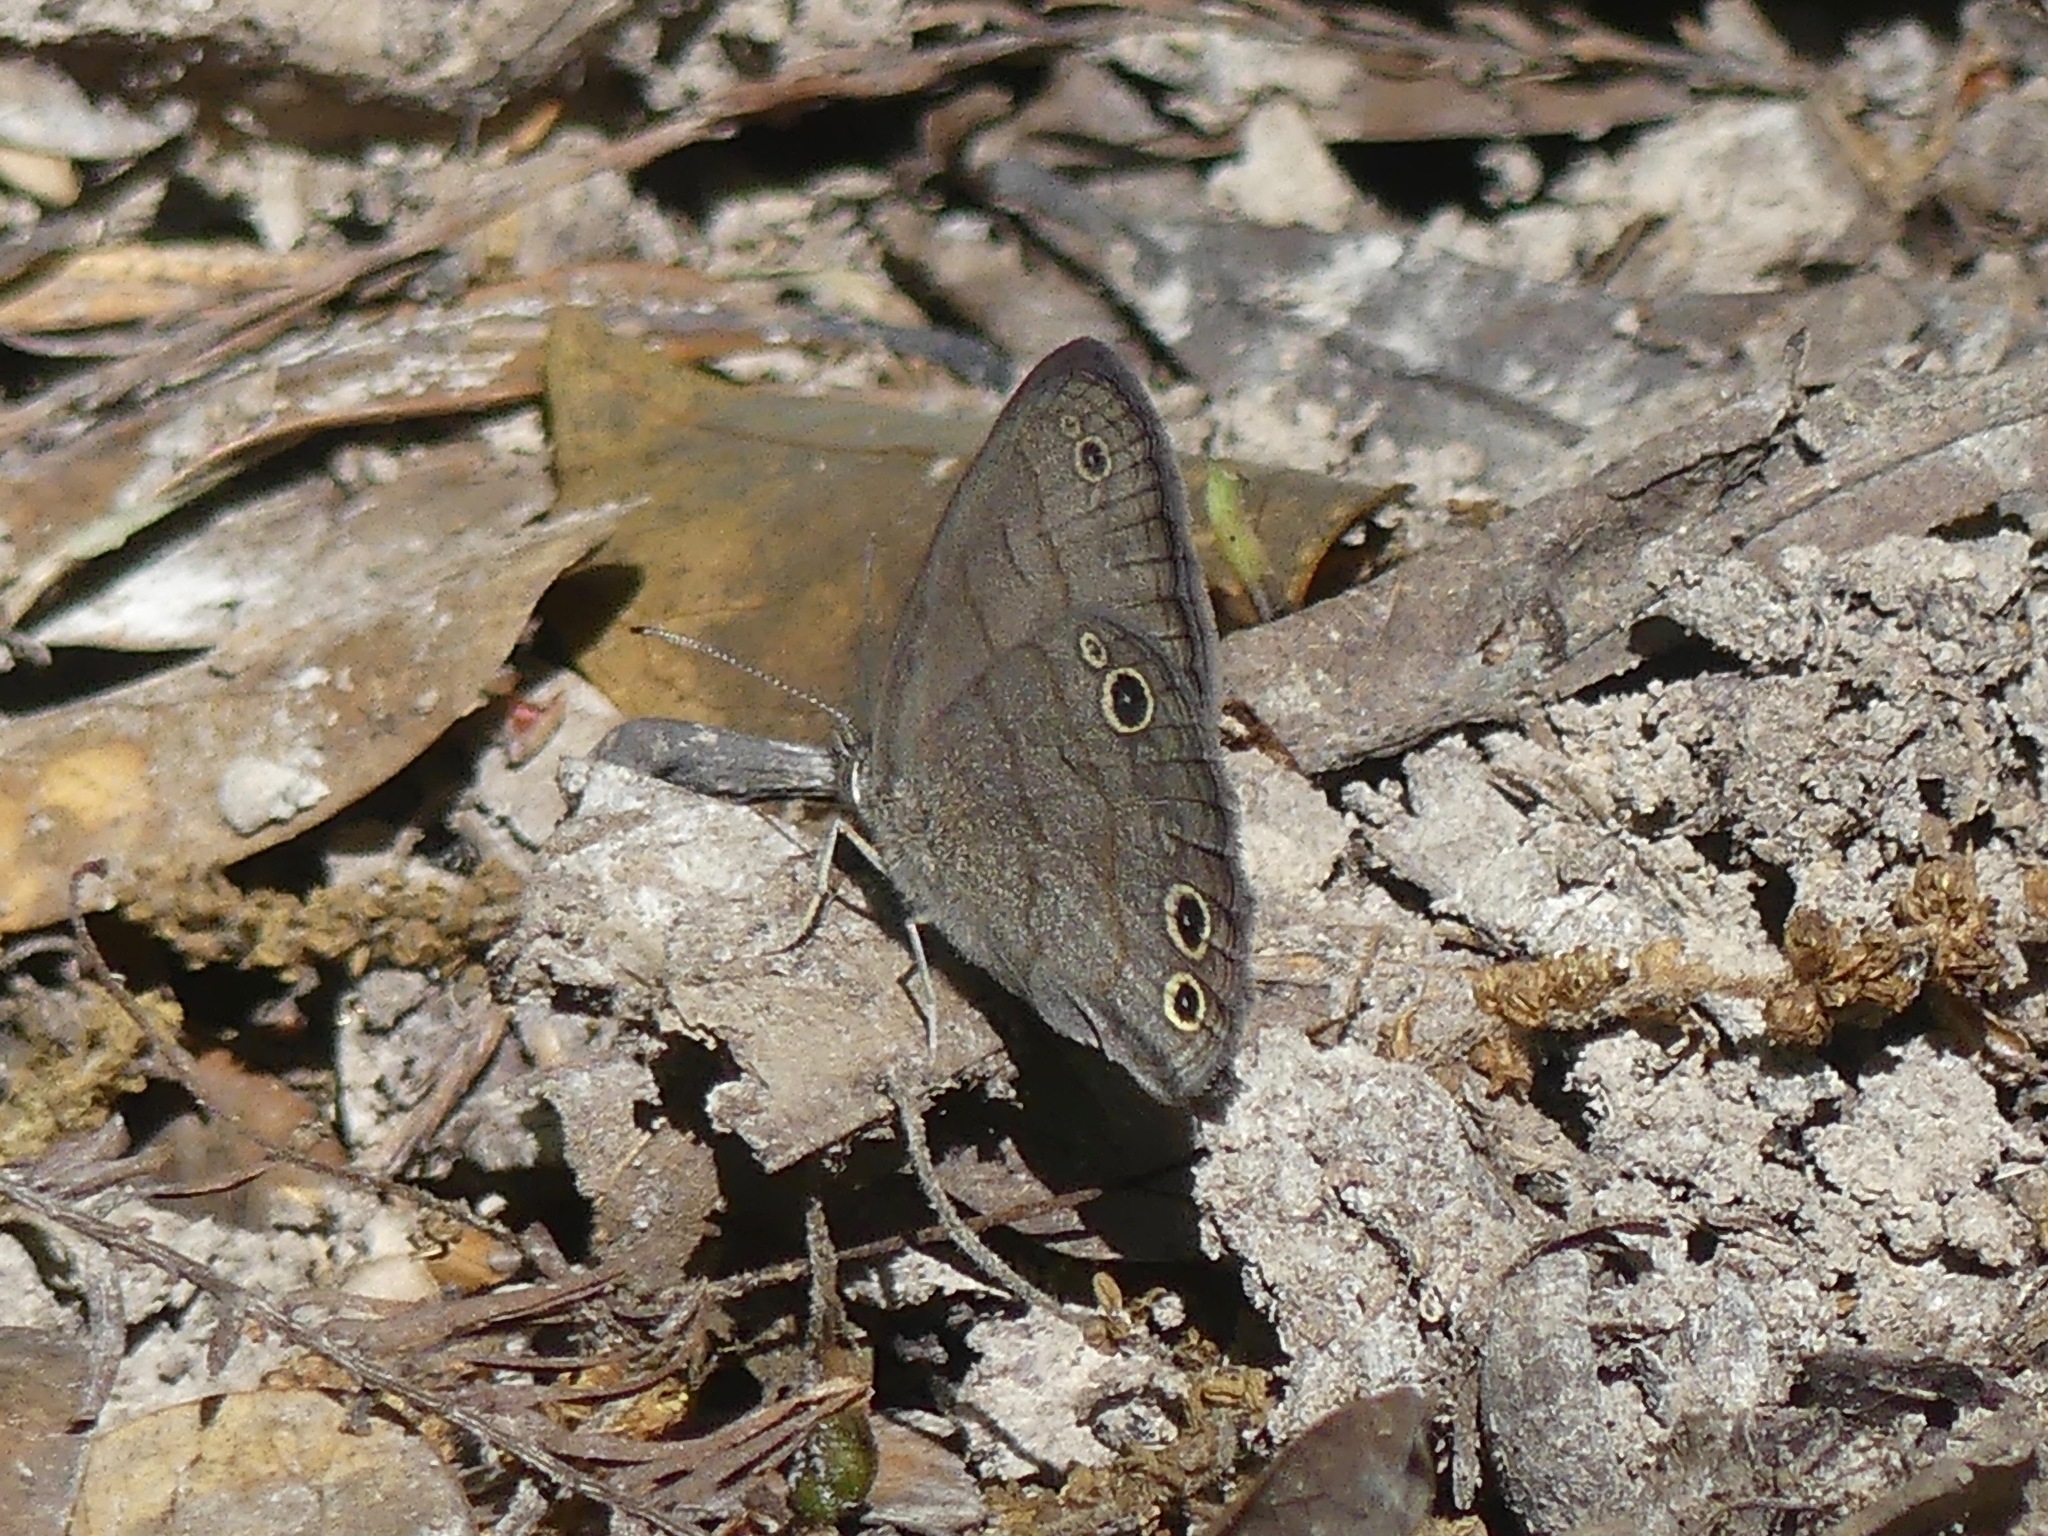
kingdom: Animalia
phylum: Arthropoda
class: Insecta
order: Lepidoptera
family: Nymphalidae
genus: Hermeuptychia
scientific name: Hermeuptychia
